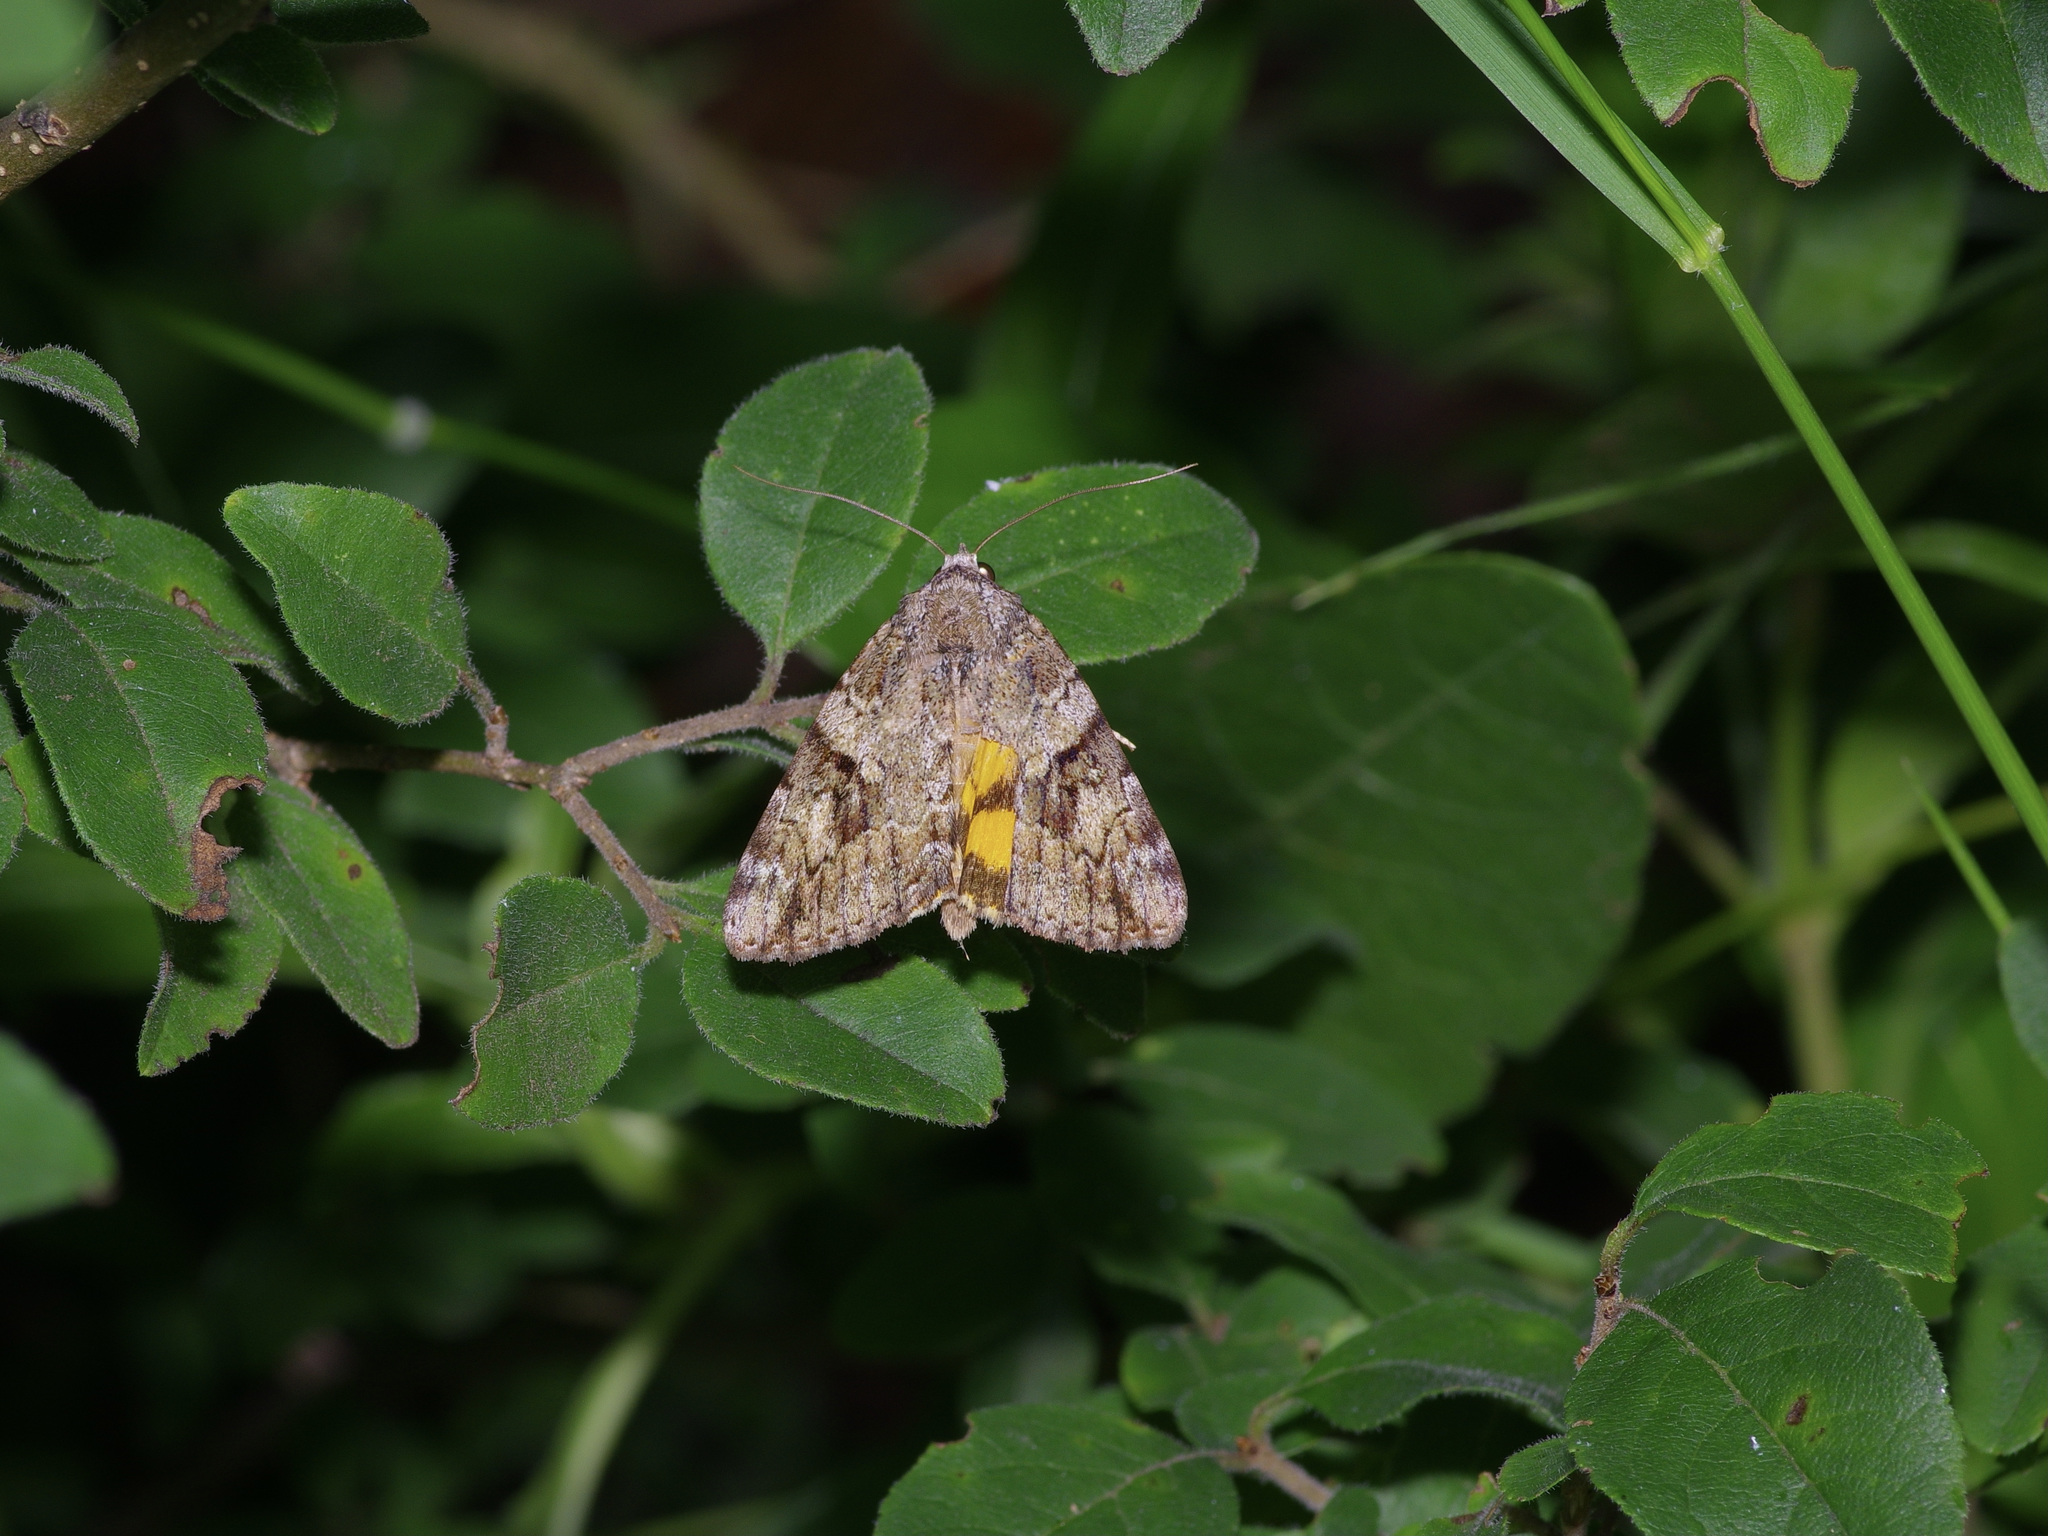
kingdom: Animalia
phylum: Arthropoda
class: Insecta
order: Lepidoptera
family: Erebidae
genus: Catocala
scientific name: Catocala micronympha
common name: Little nymph underwing
